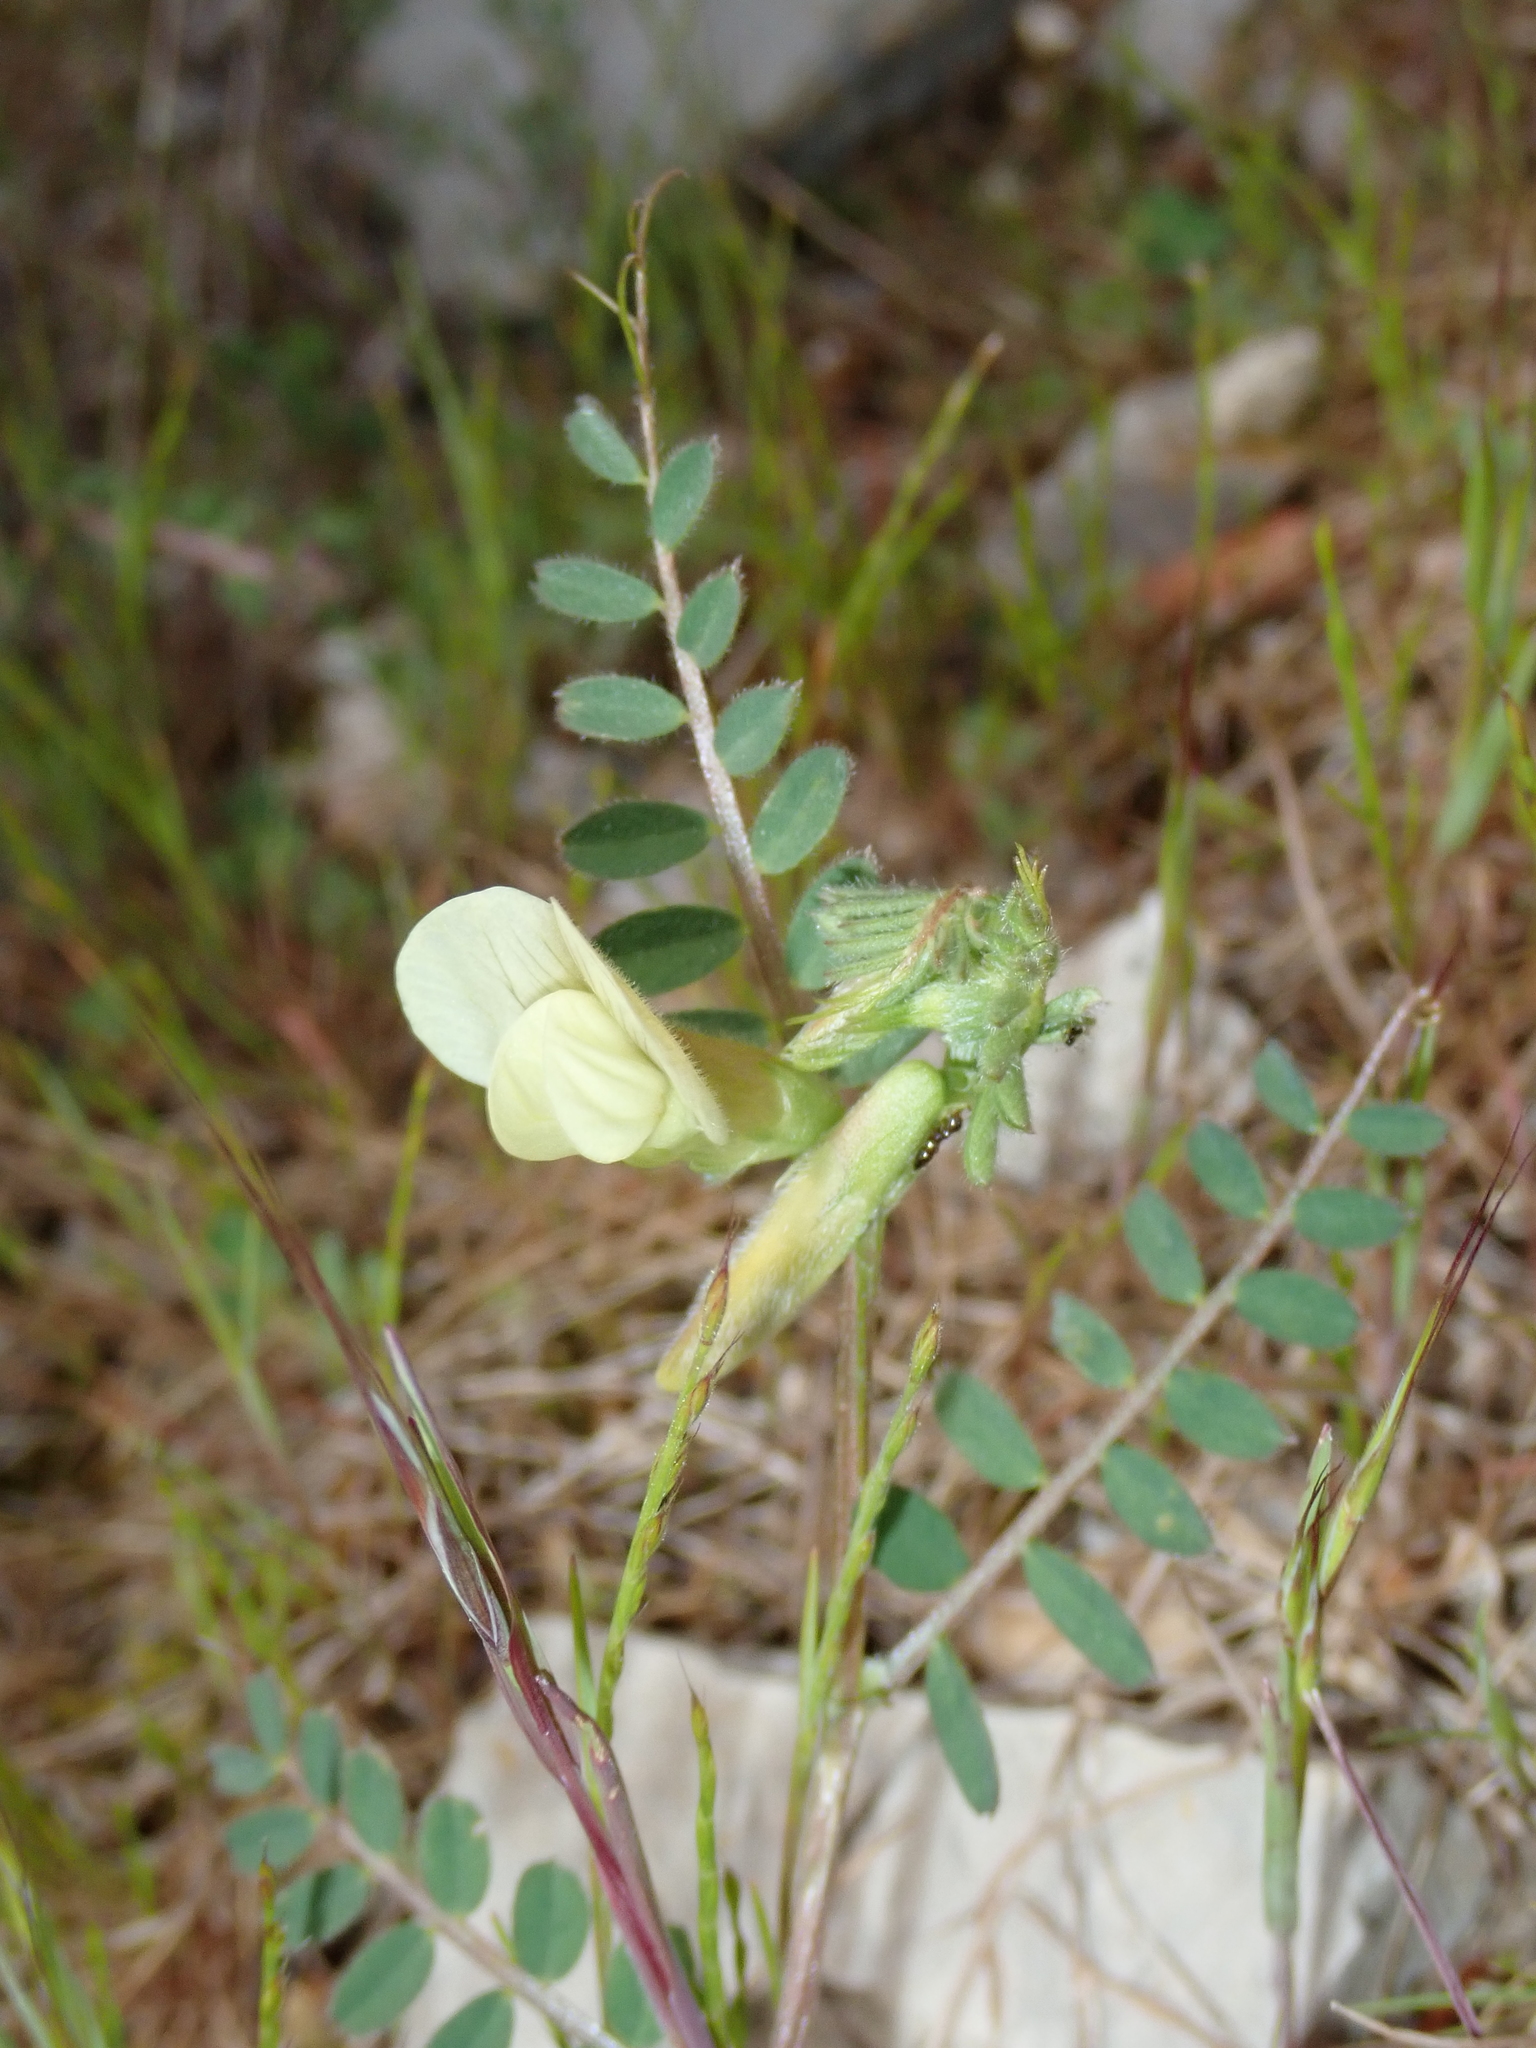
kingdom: Plantae
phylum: Tracheophyta
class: Magnoliopsida
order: Fabales
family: Fabaceae
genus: Vicia
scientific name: Vicia hybrida
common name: Hairy yellow vetch
